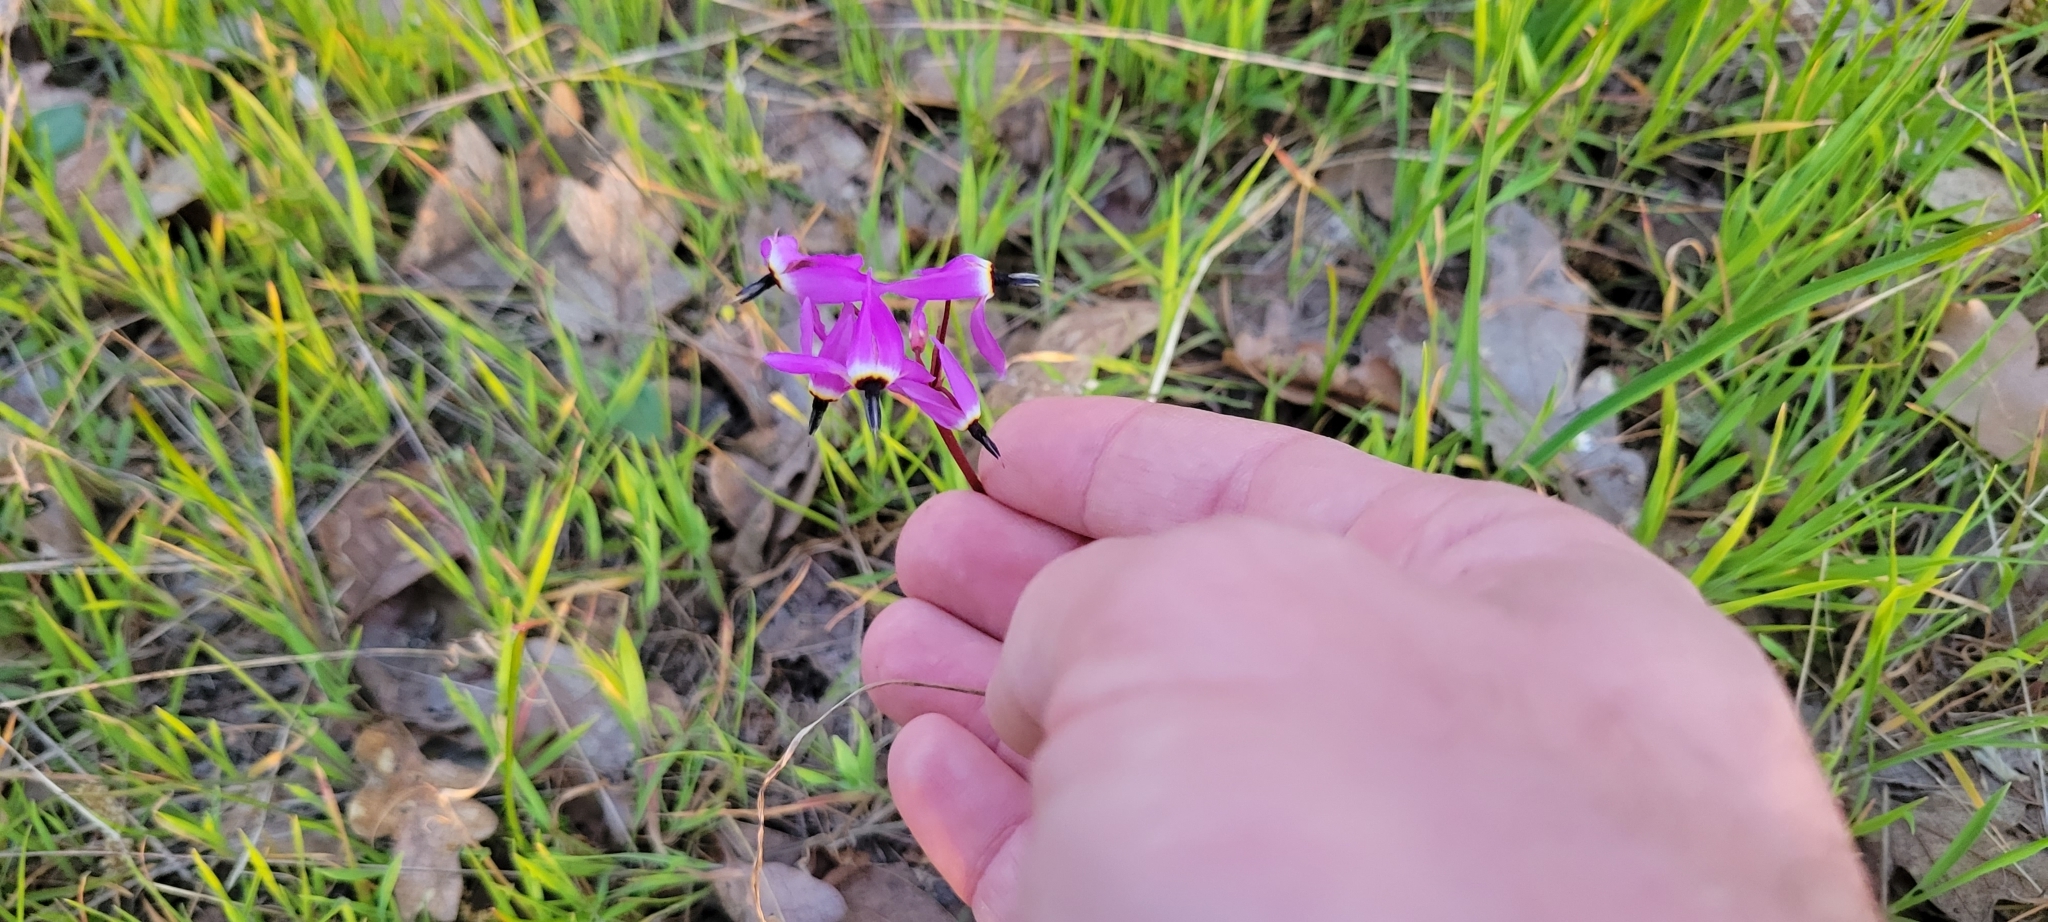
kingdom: Plantae
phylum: Tracheophyta
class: Magnoliopsida
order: Ericales
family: Primulaceae
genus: Dodecatheon
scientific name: Dodecatheon hendersonii
